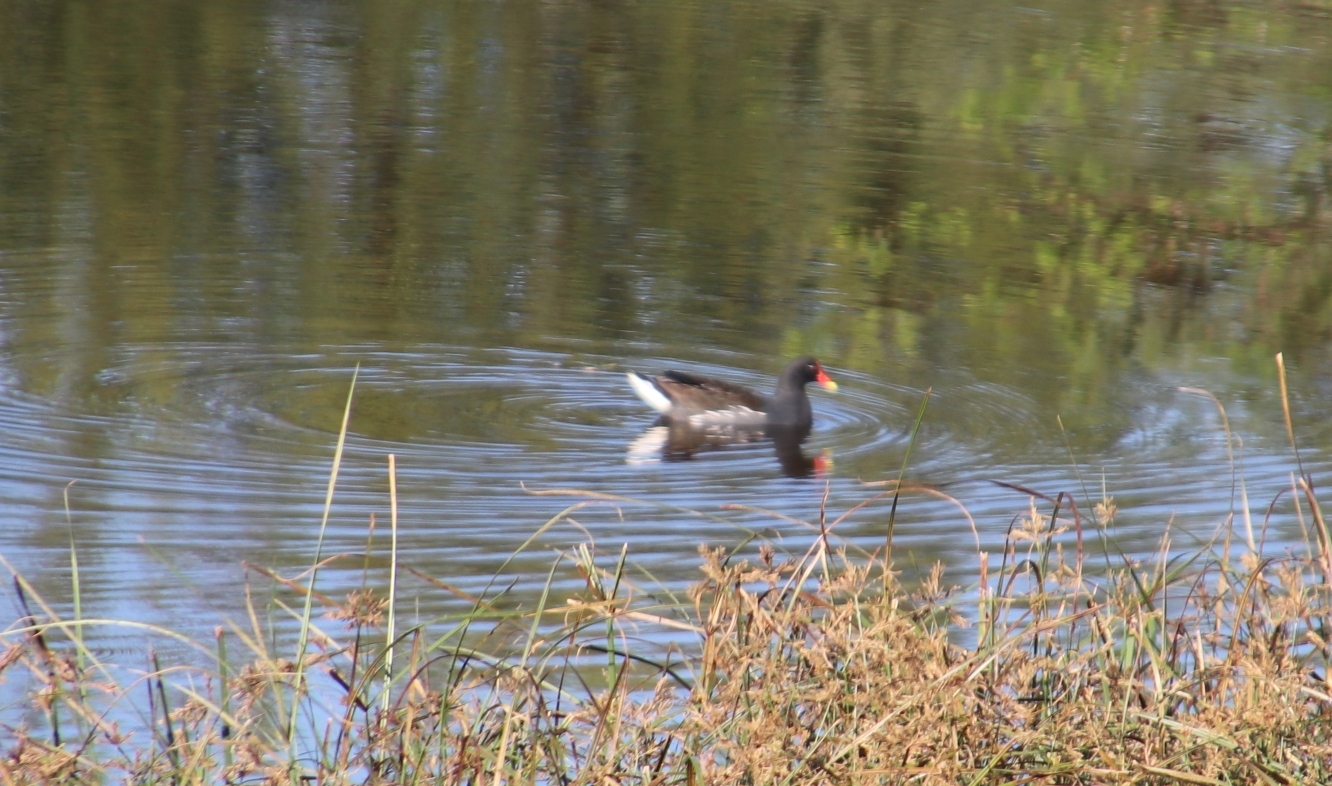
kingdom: Animalia
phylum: Chordata
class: Aves
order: Gruiformes
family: Rallidae
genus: Gallinula
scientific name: Gallinula chloropus
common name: Common moorhen
